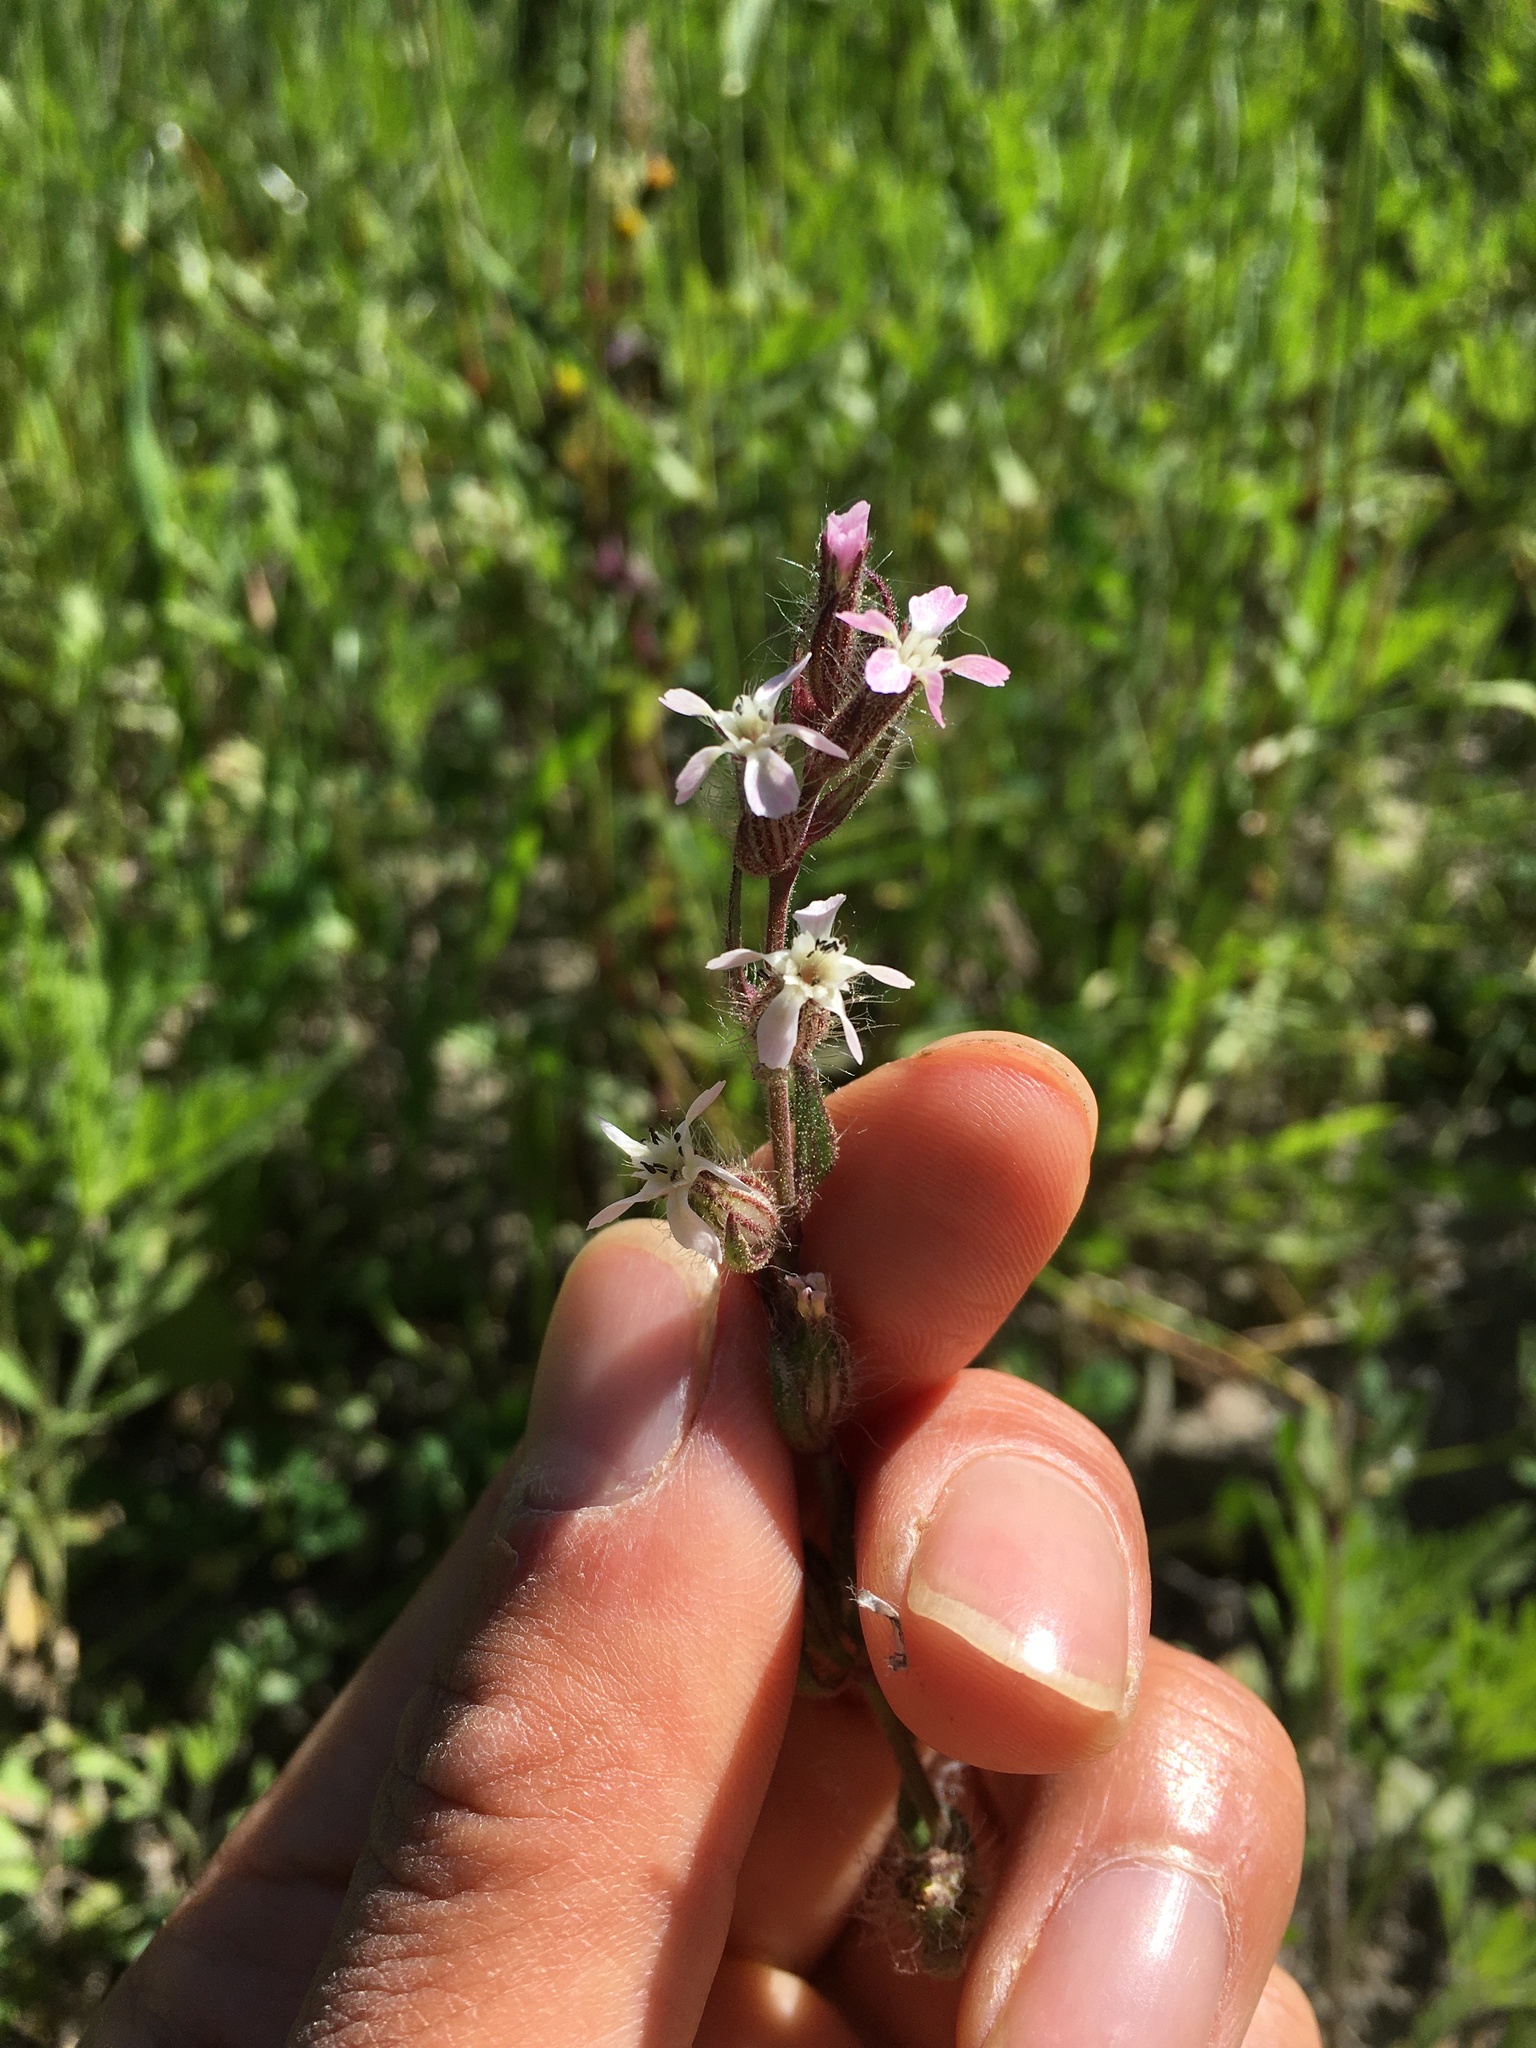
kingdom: Plantae
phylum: Tracheophyta
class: Magnoliopsida
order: Caryophyllales
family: Caryophyllaceae
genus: Silene
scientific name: Silene gallica
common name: Small-flowered catchfly
